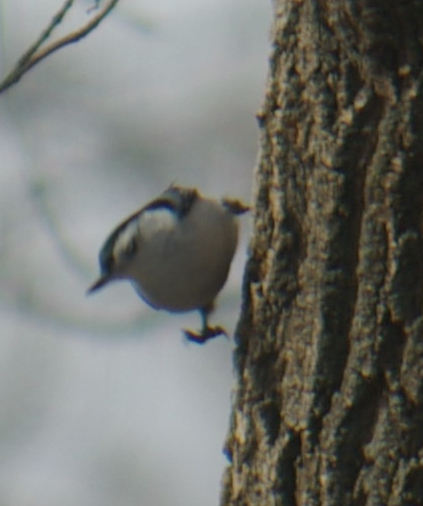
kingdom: Animalia
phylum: Chordata
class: Aves
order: Passeriformes
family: Sittidae
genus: Sitta
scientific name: Sitta carolinensis
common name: White-breasted nuthatch
